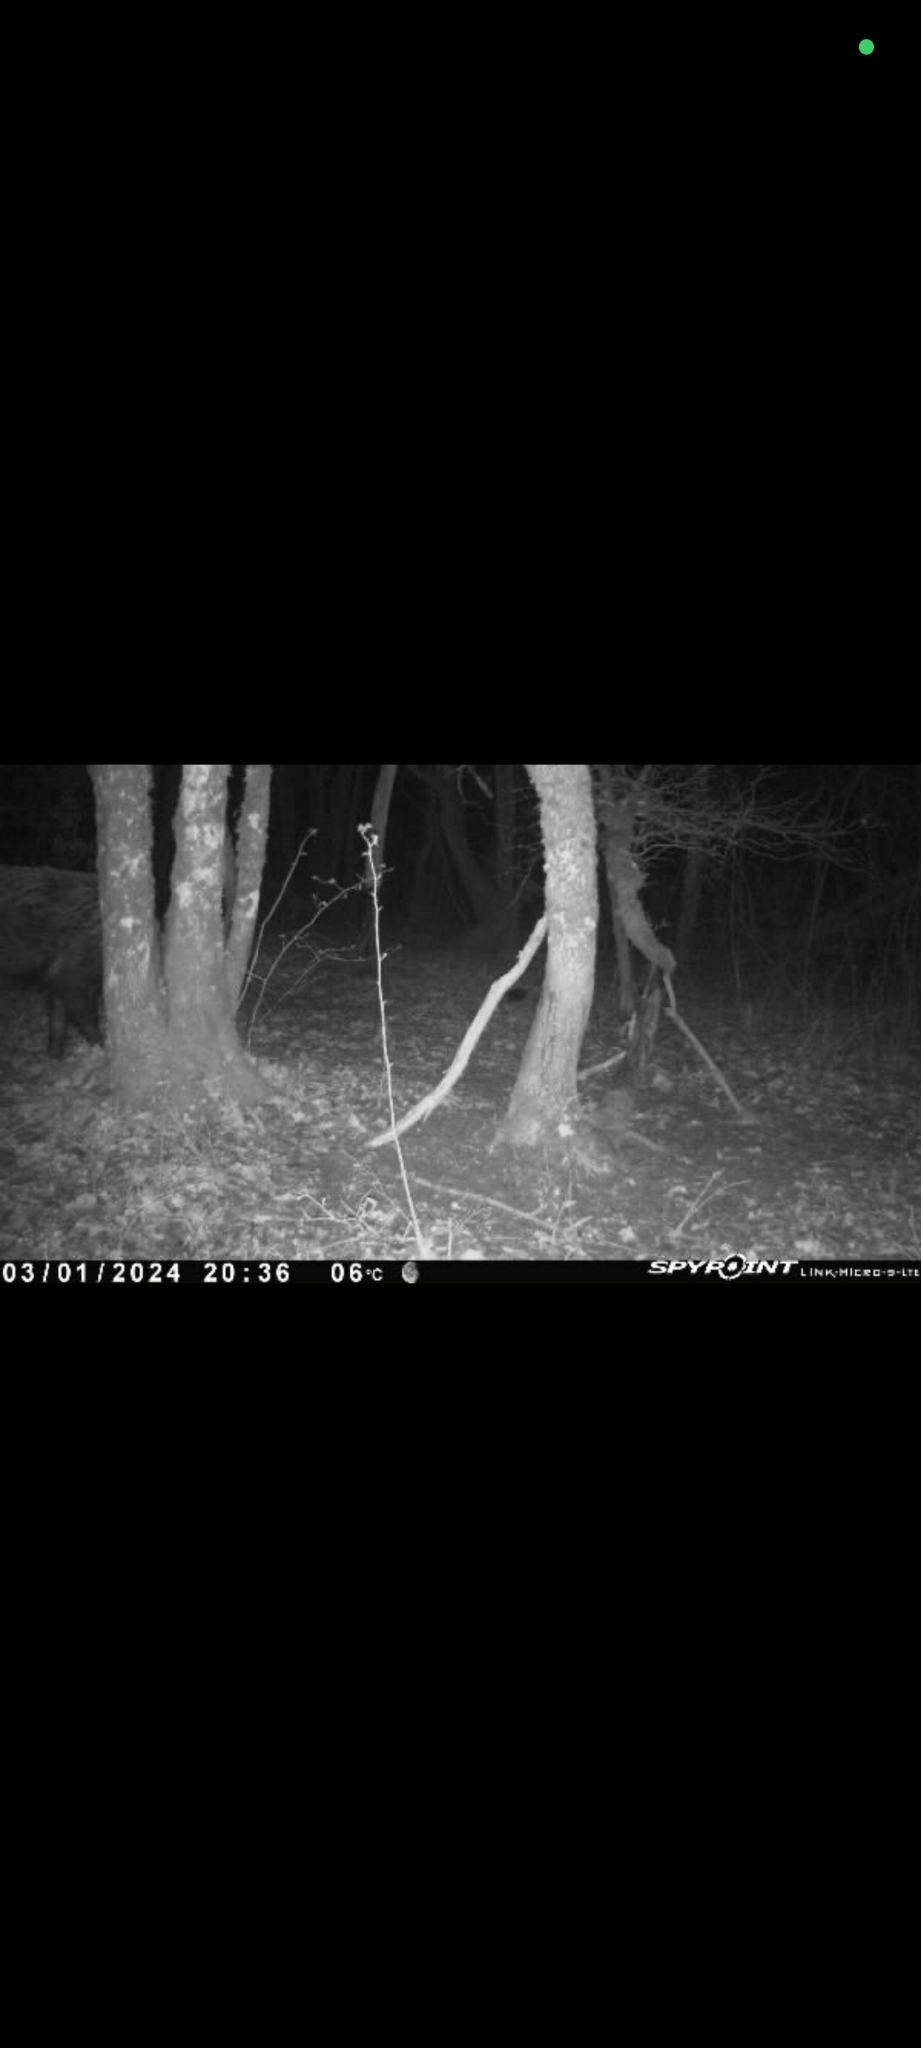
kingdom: Animalia
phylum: Chordata
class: Mammalia
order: Artiodactyla
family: Suidae
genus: Sus
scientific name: Sus scrofa
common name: Wild boar
